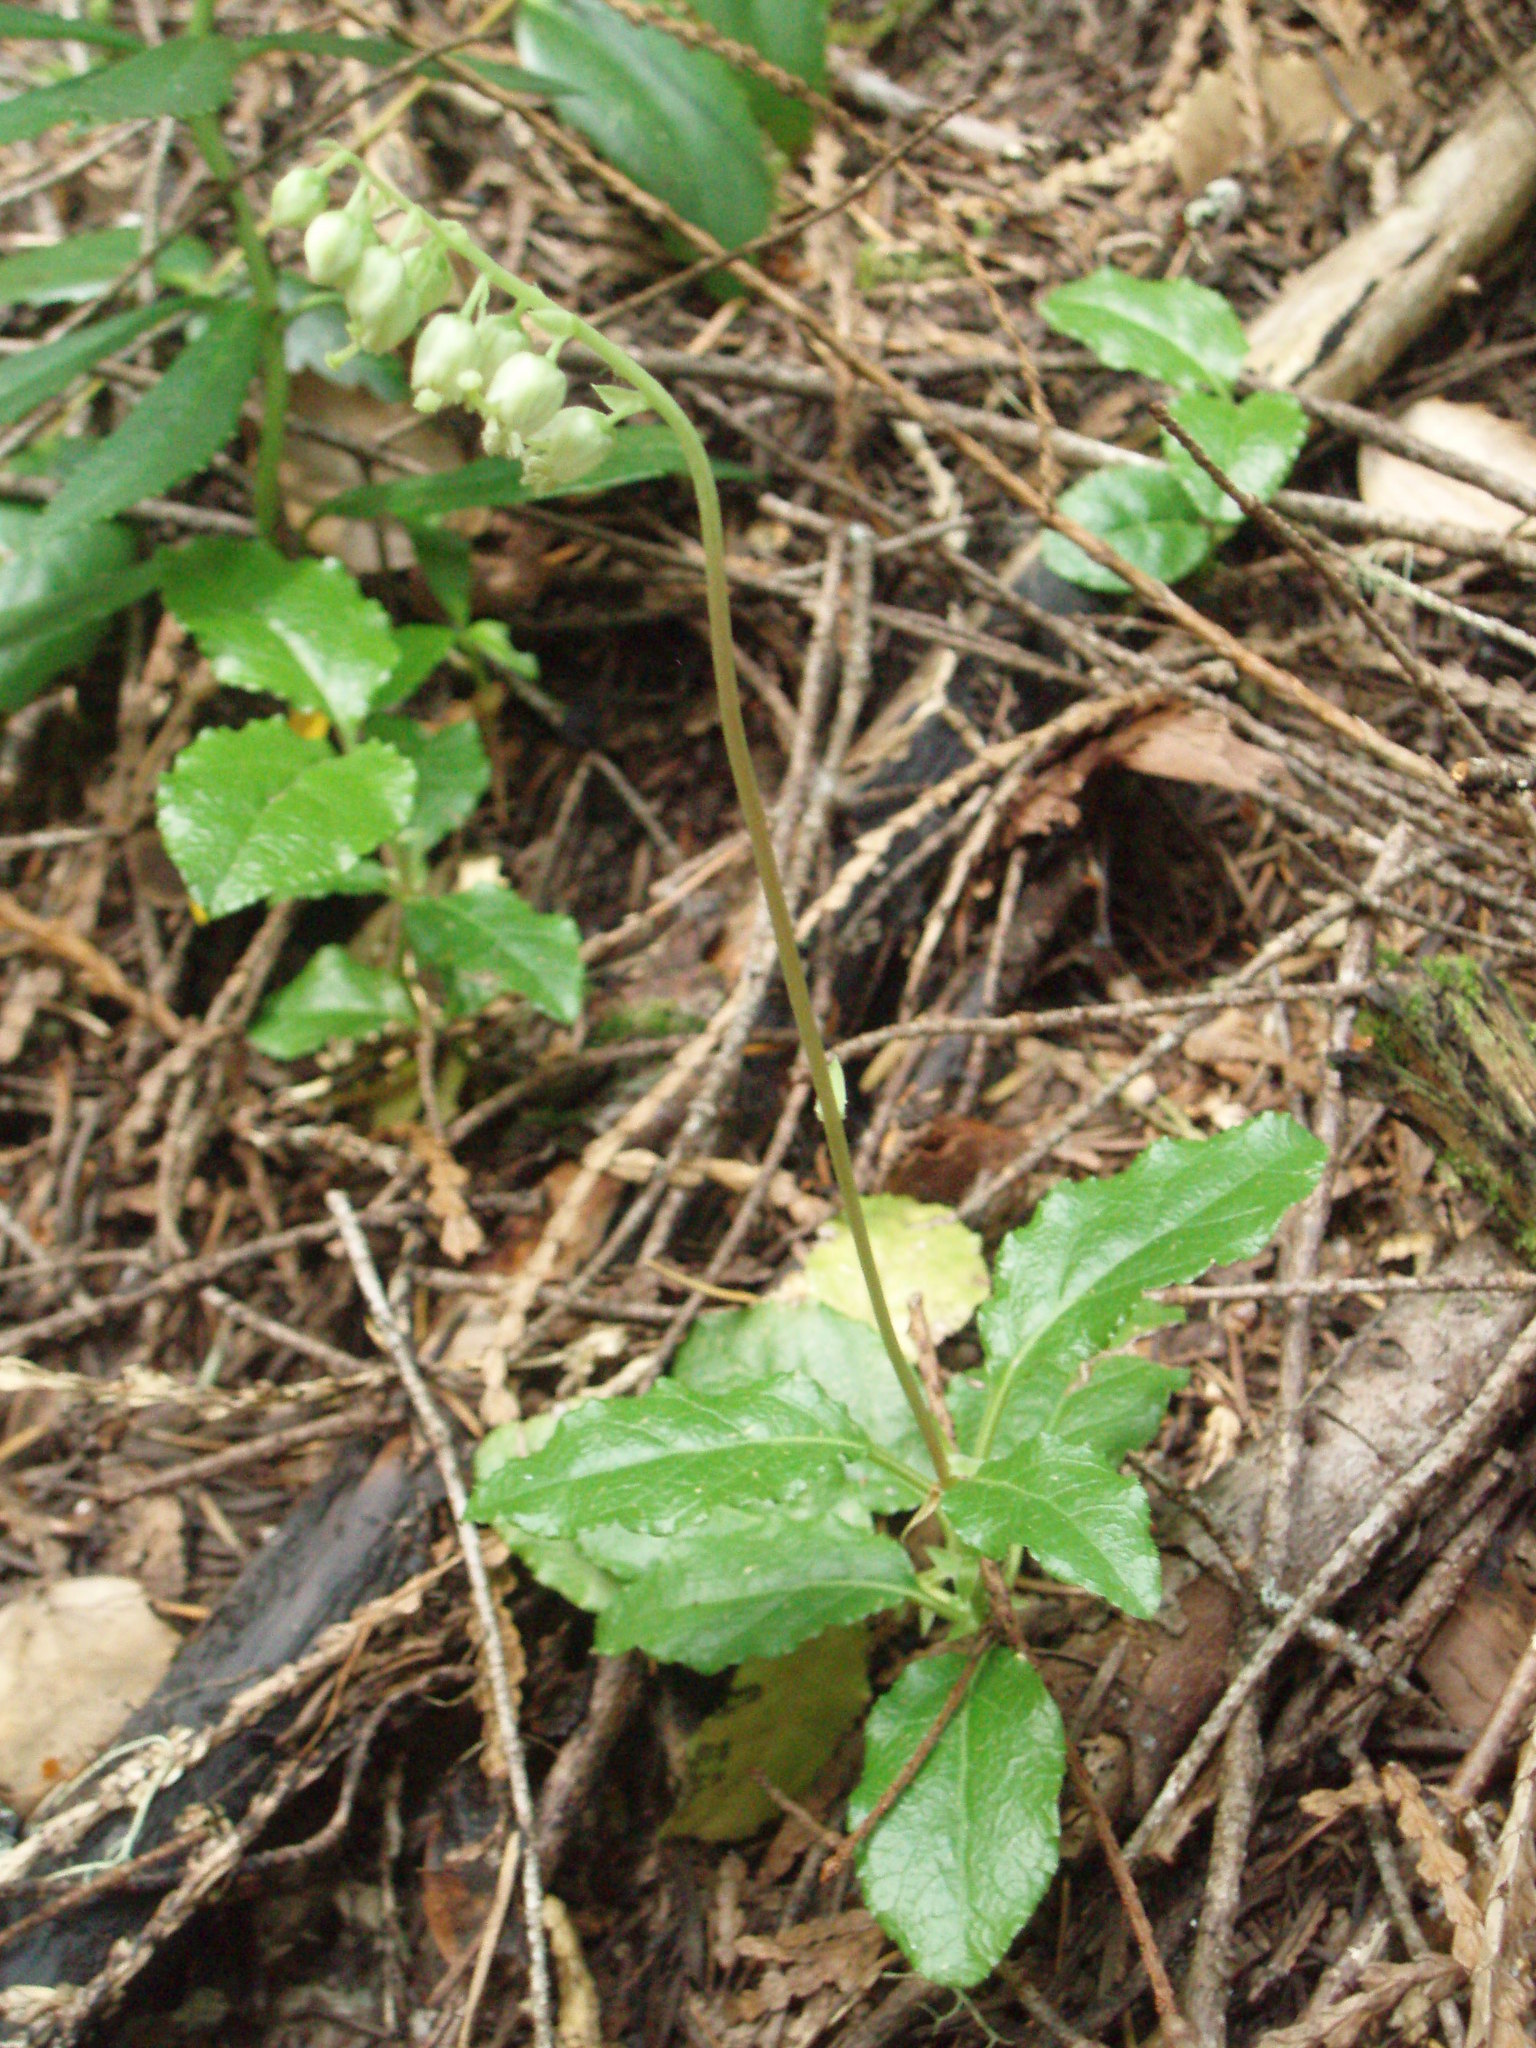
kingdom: Plantae
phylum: Tracheophyta
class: Magnoliopsida
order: Ericales
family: Ericaceae
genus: Orthilia
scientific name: Orthilia secunda
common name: One-sided orthilia
